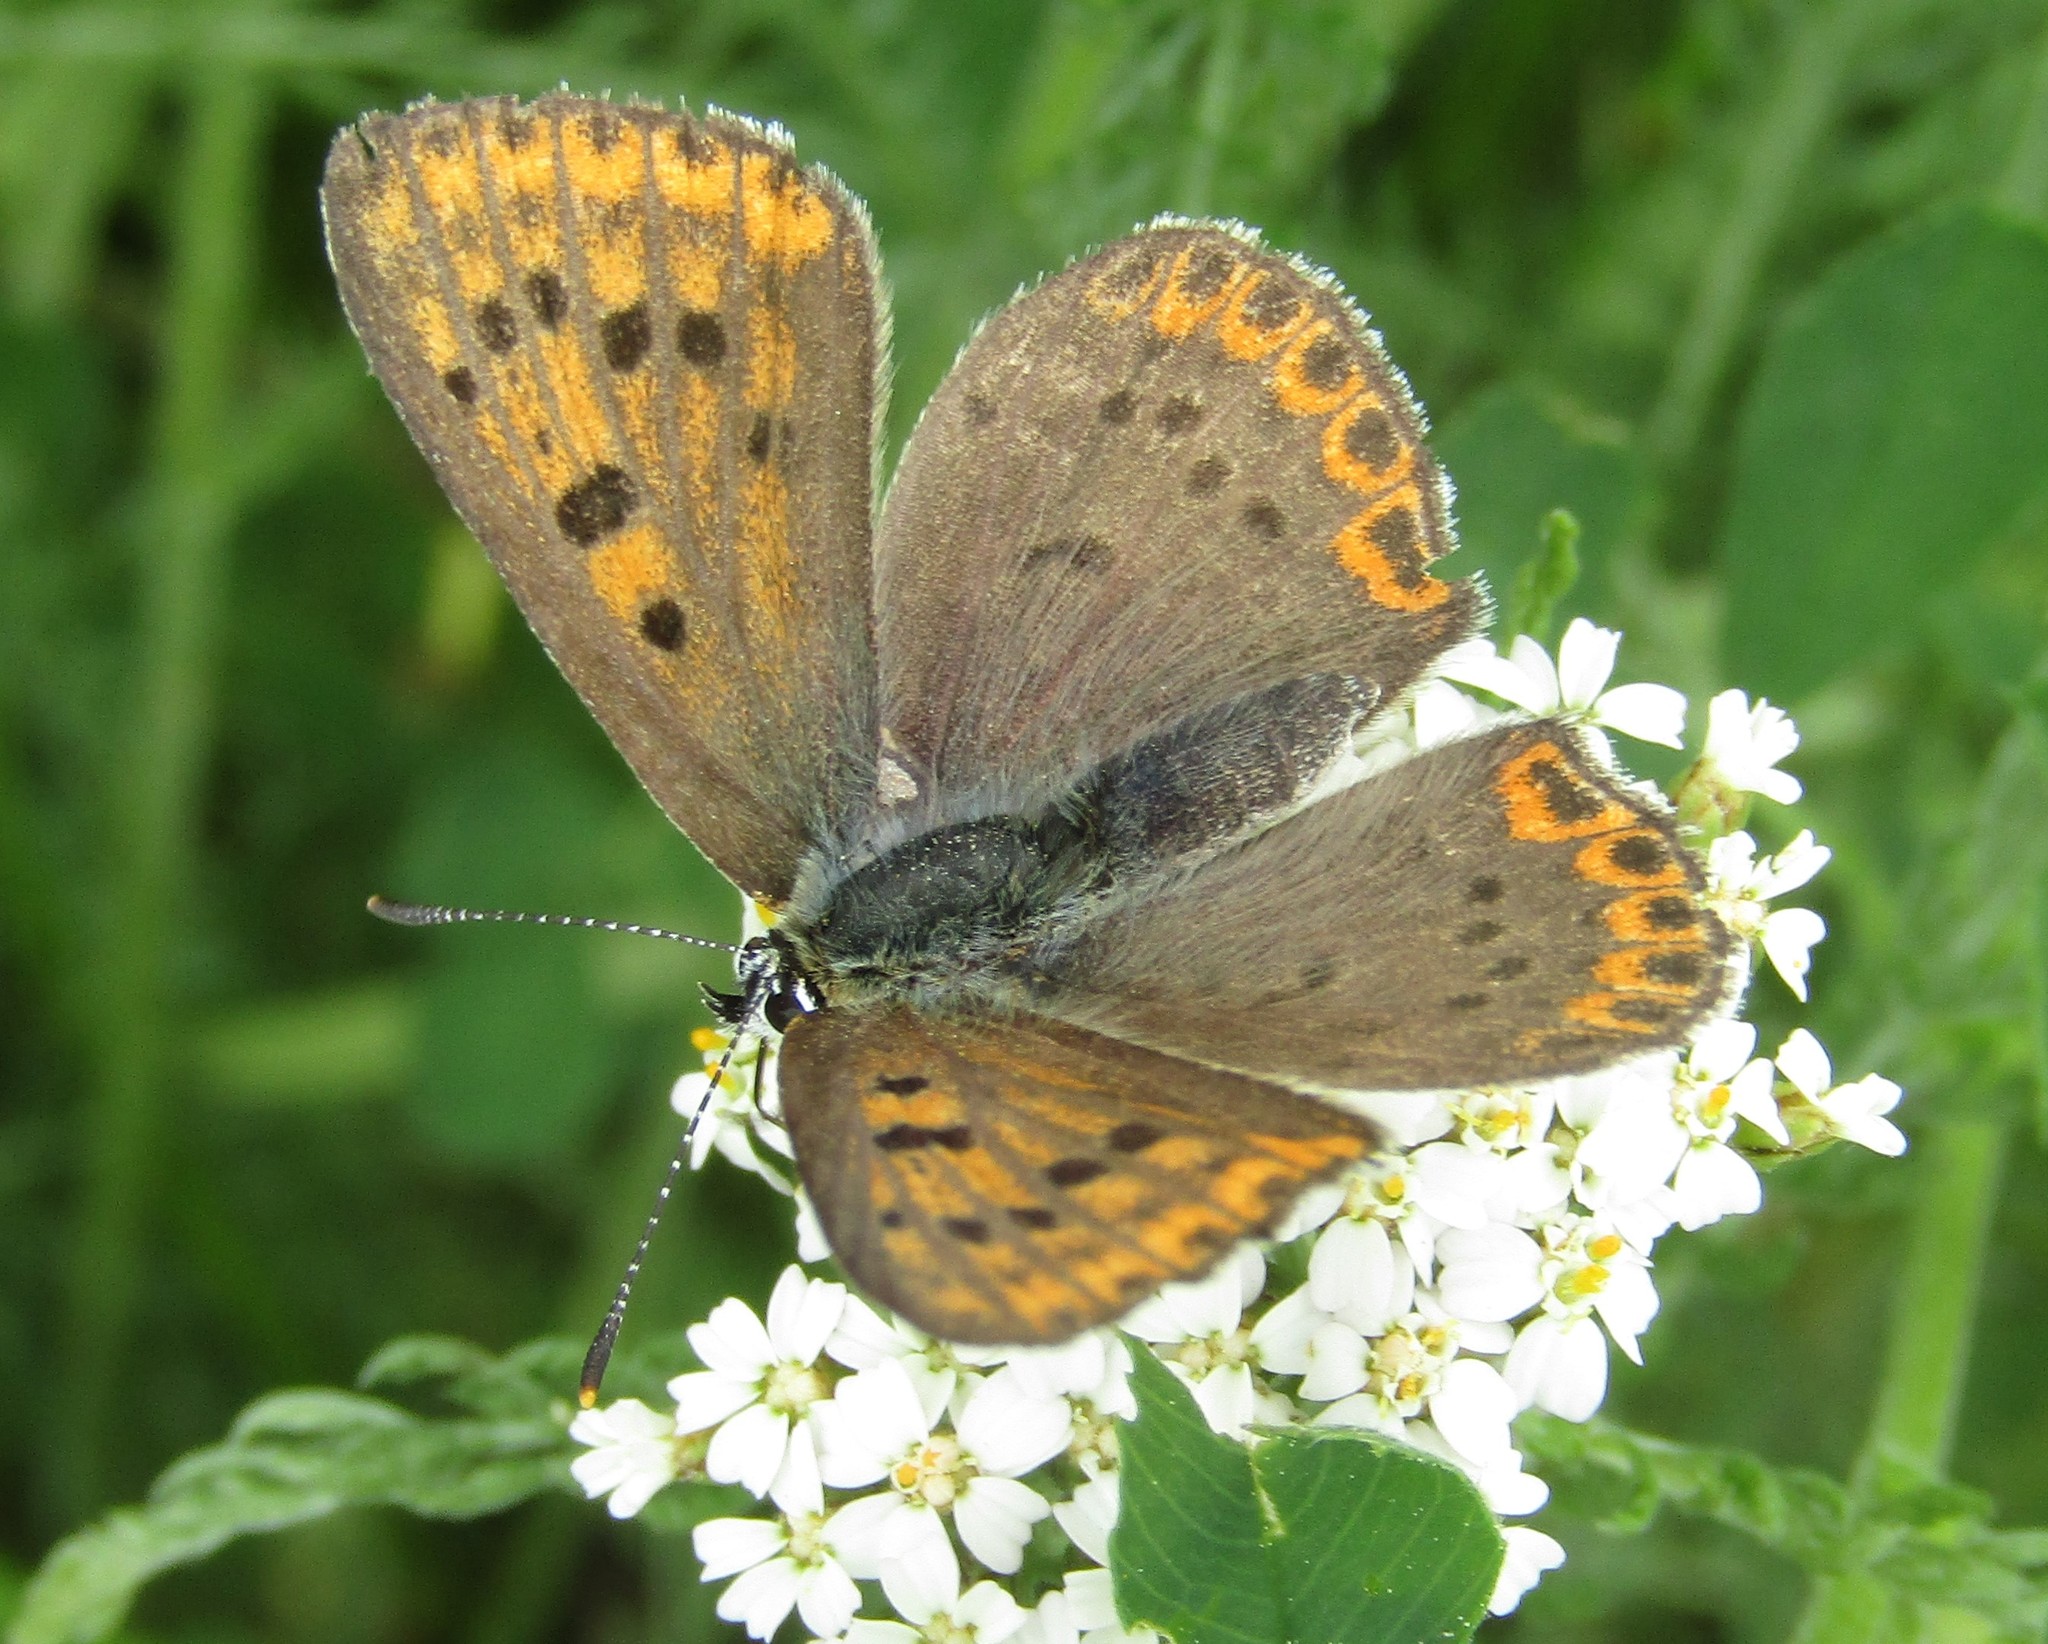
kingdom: Animalia
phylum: Arthropoda
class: Insecta
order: Lepidoptera
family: Lycaenidae
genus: Loweia
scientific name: Loweia tityrus
